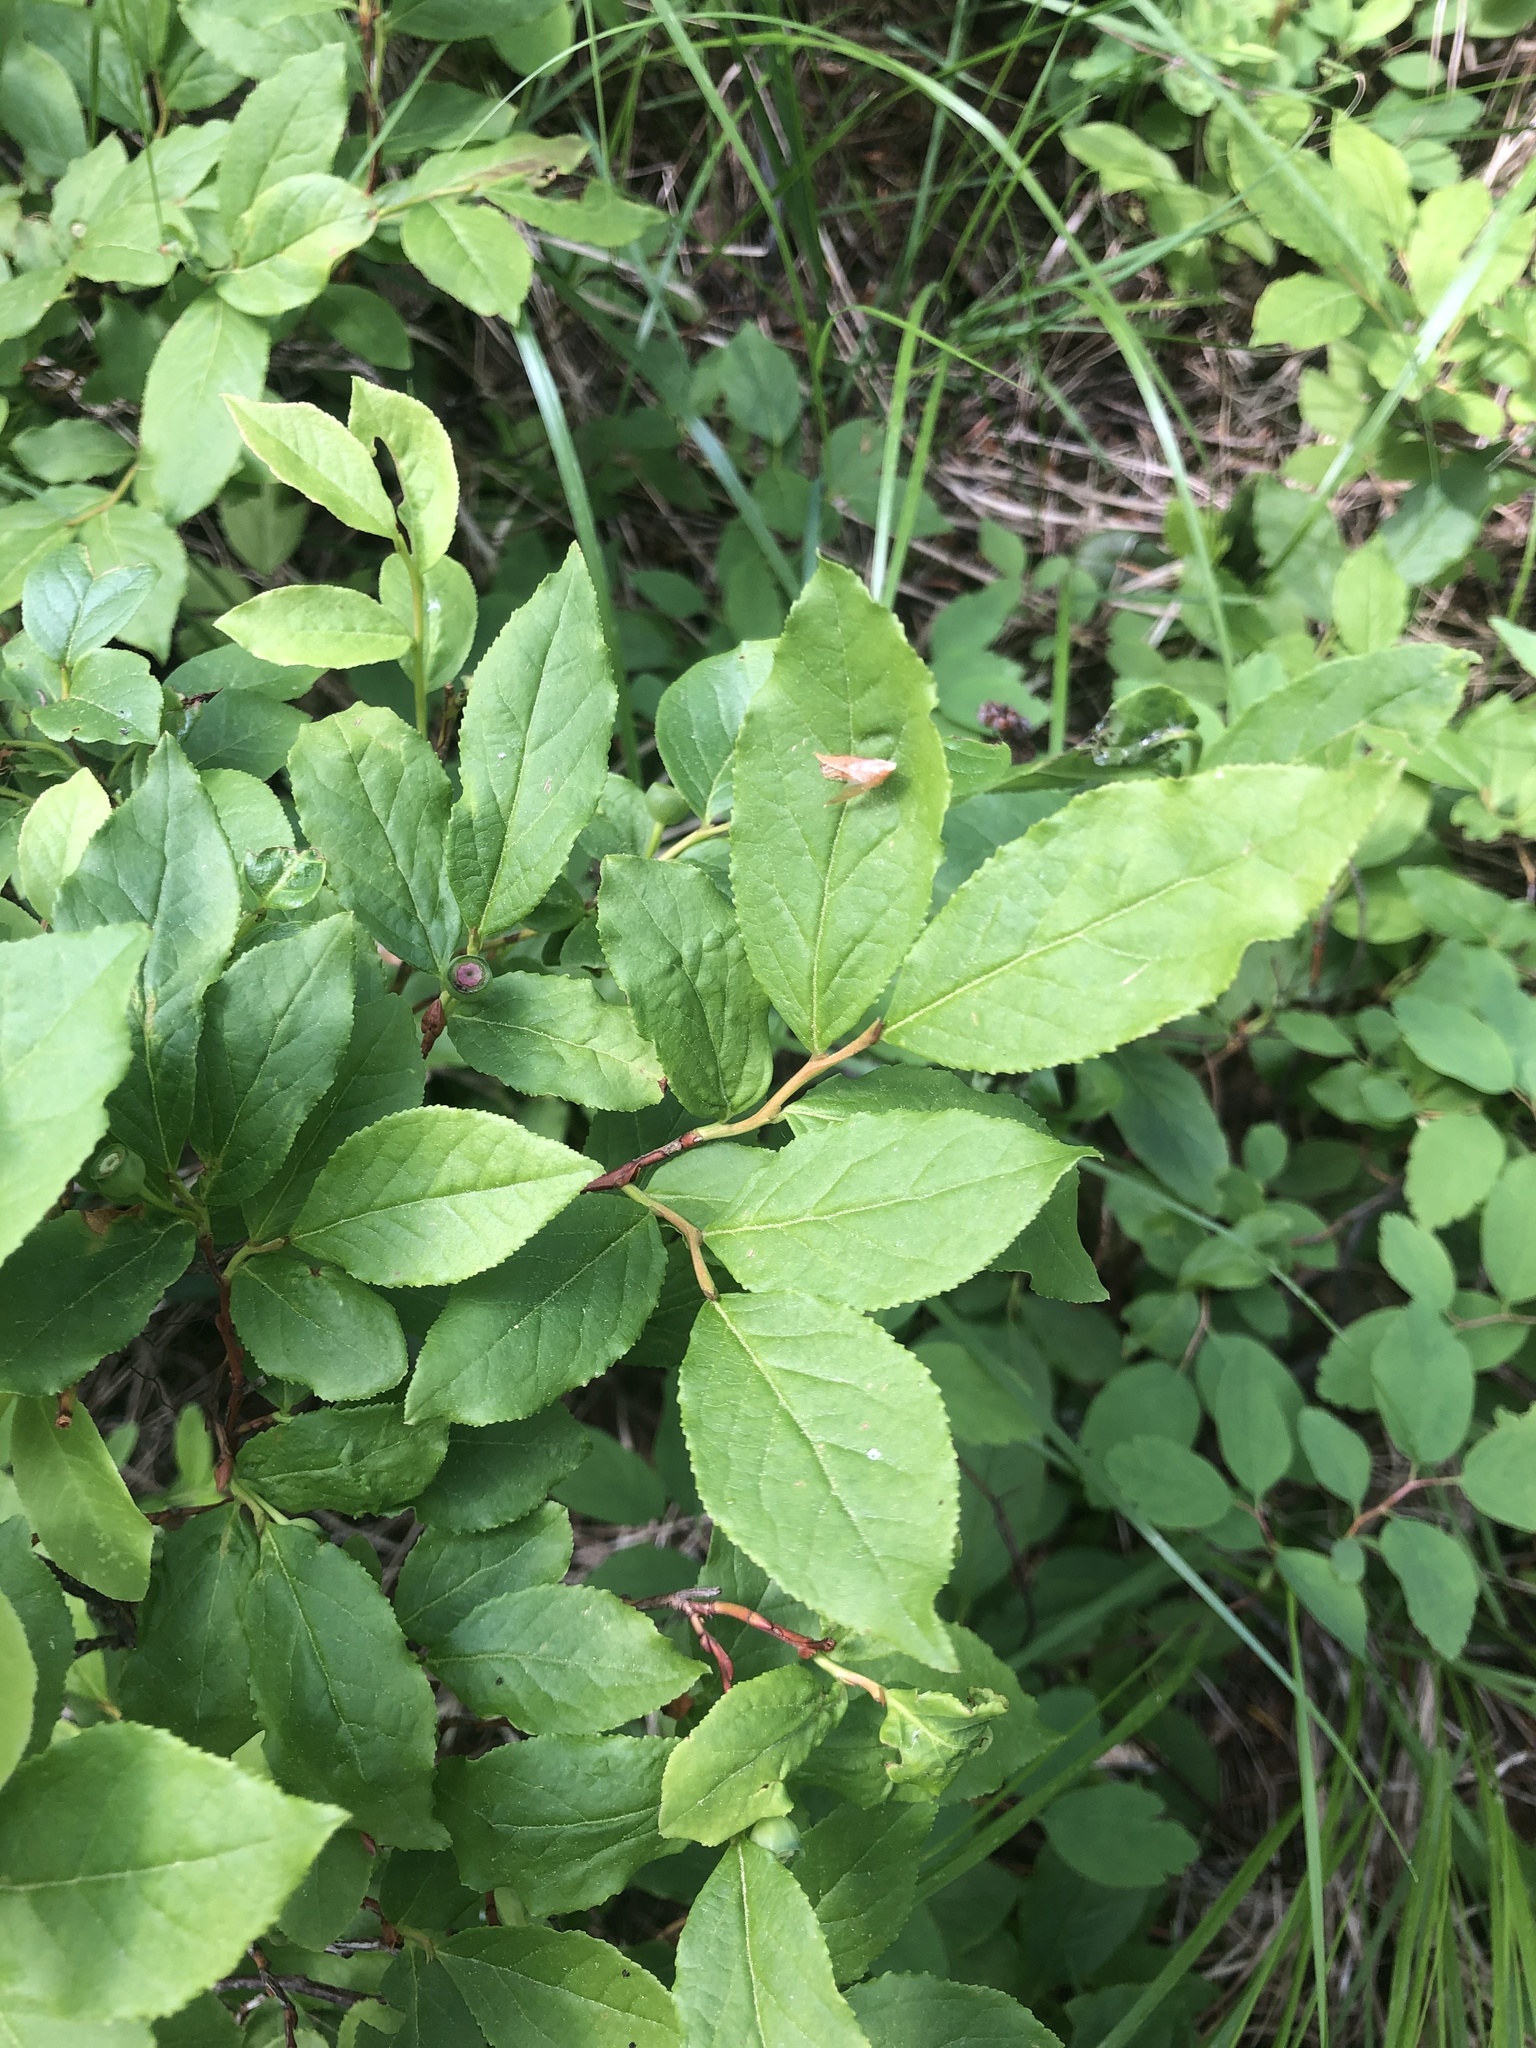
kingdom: Plantae
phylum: Tracheophyta
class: Magnoliopsida
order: Ericales
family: Ericaceae
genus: Vaccinium
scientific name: Vaccinium membranaceum
